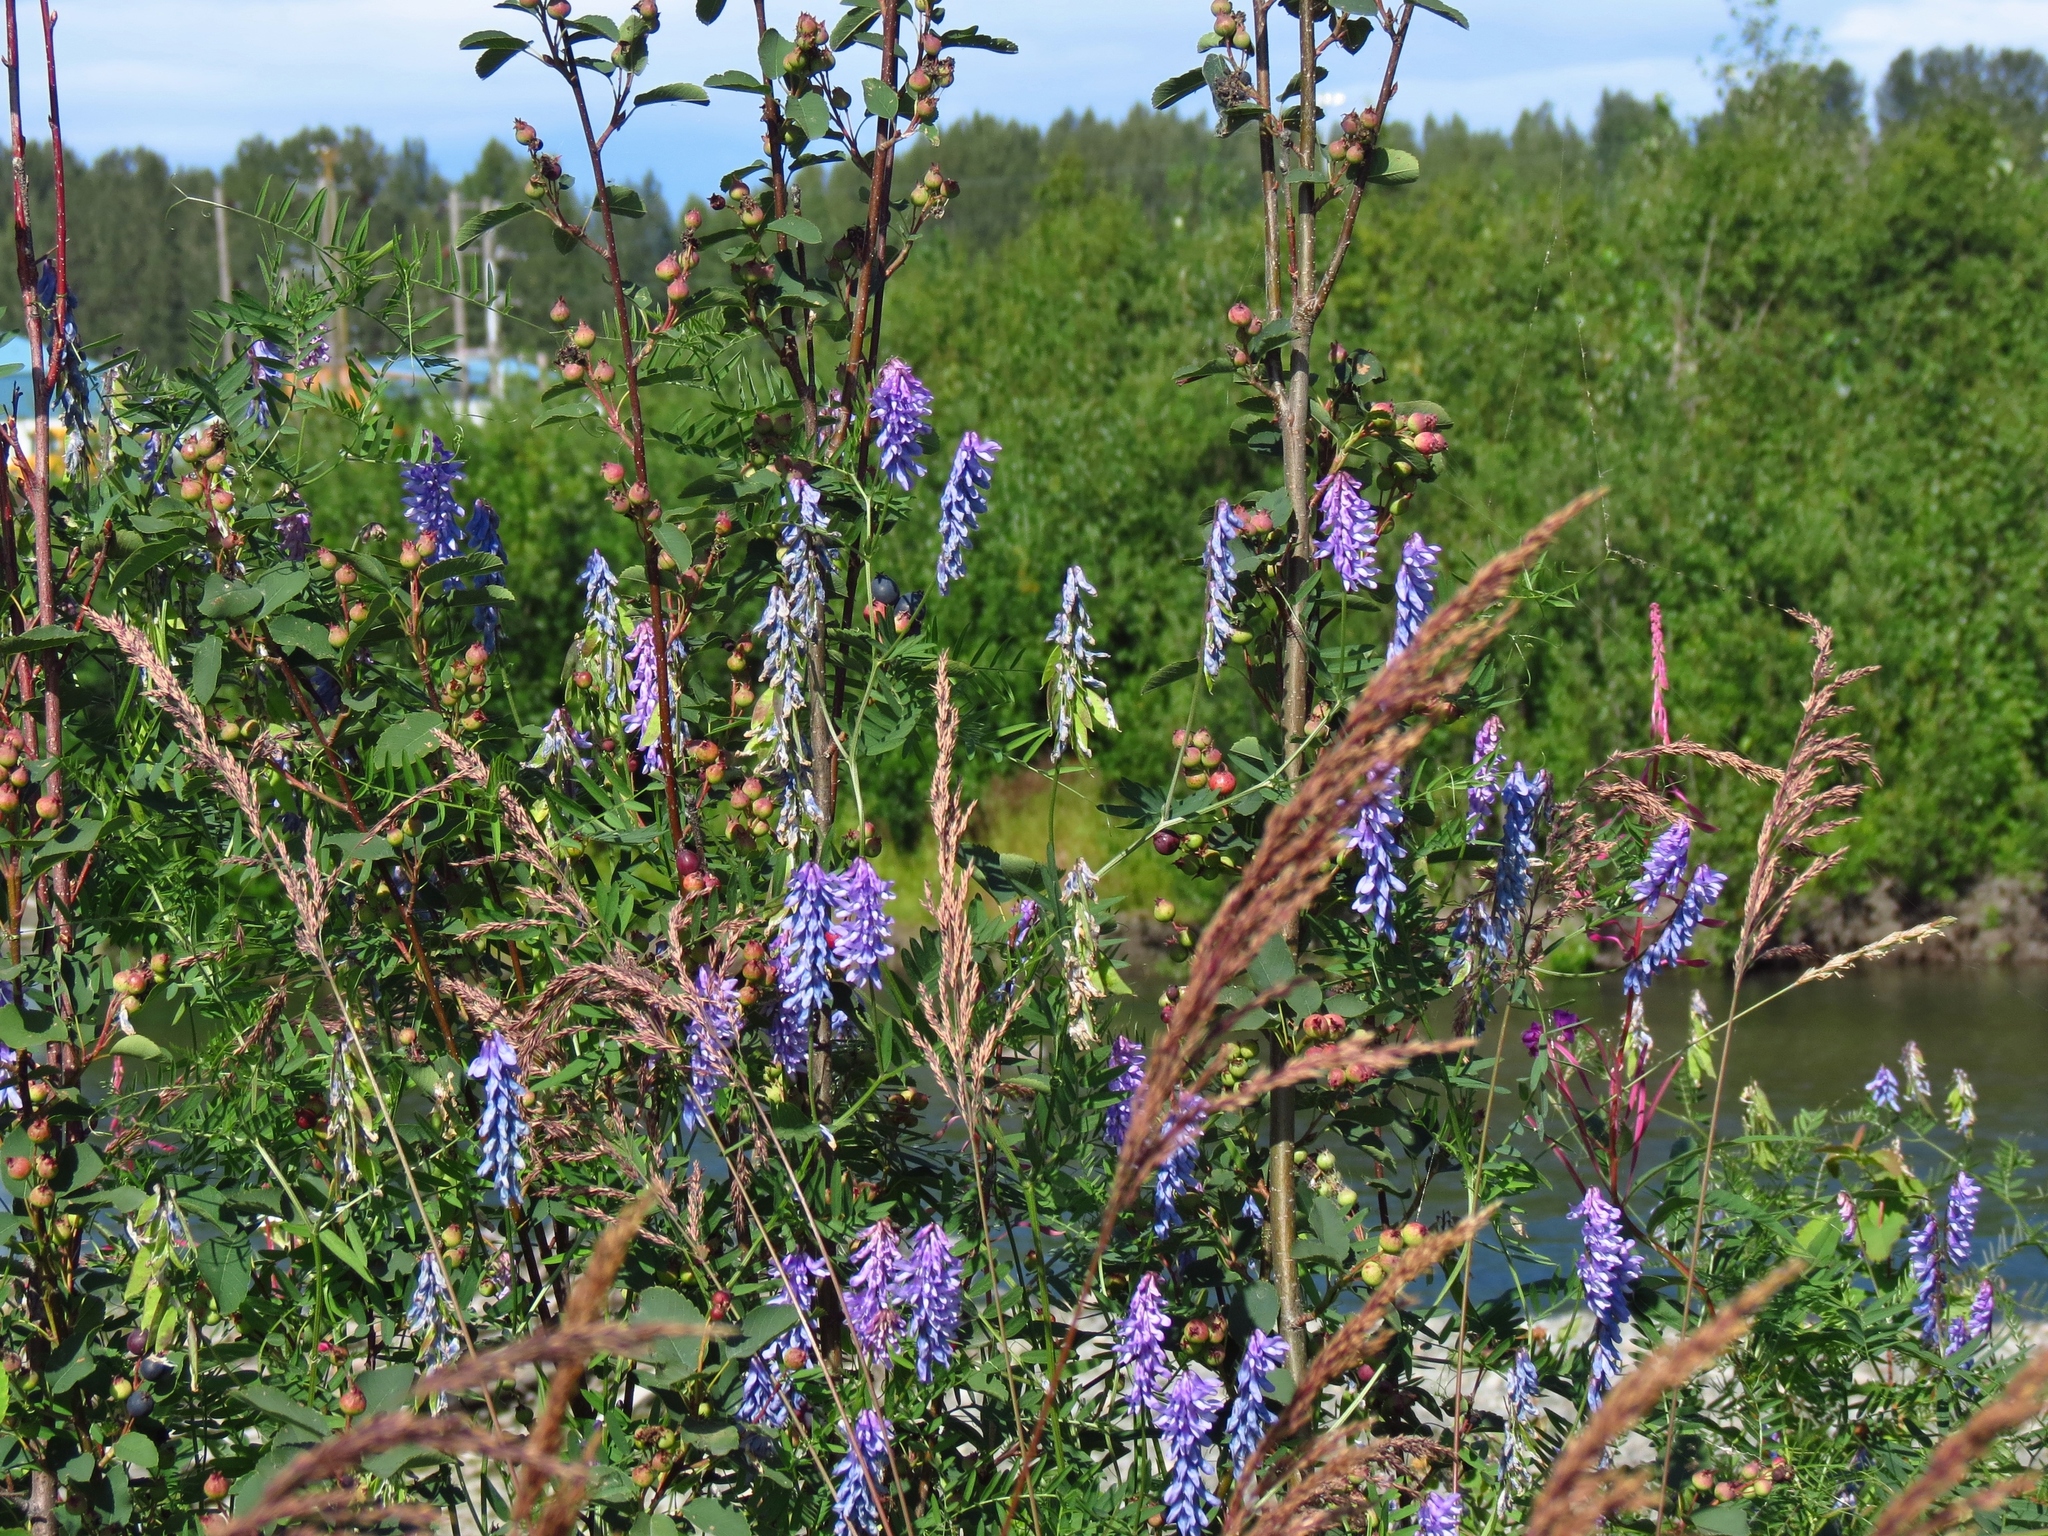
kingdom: Plantae
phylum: Tracheophyta
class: Magnoliopsida
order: Fabales
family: Fabaceae
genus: Vicia
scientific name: Vicia cracca
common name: Bird vetch
